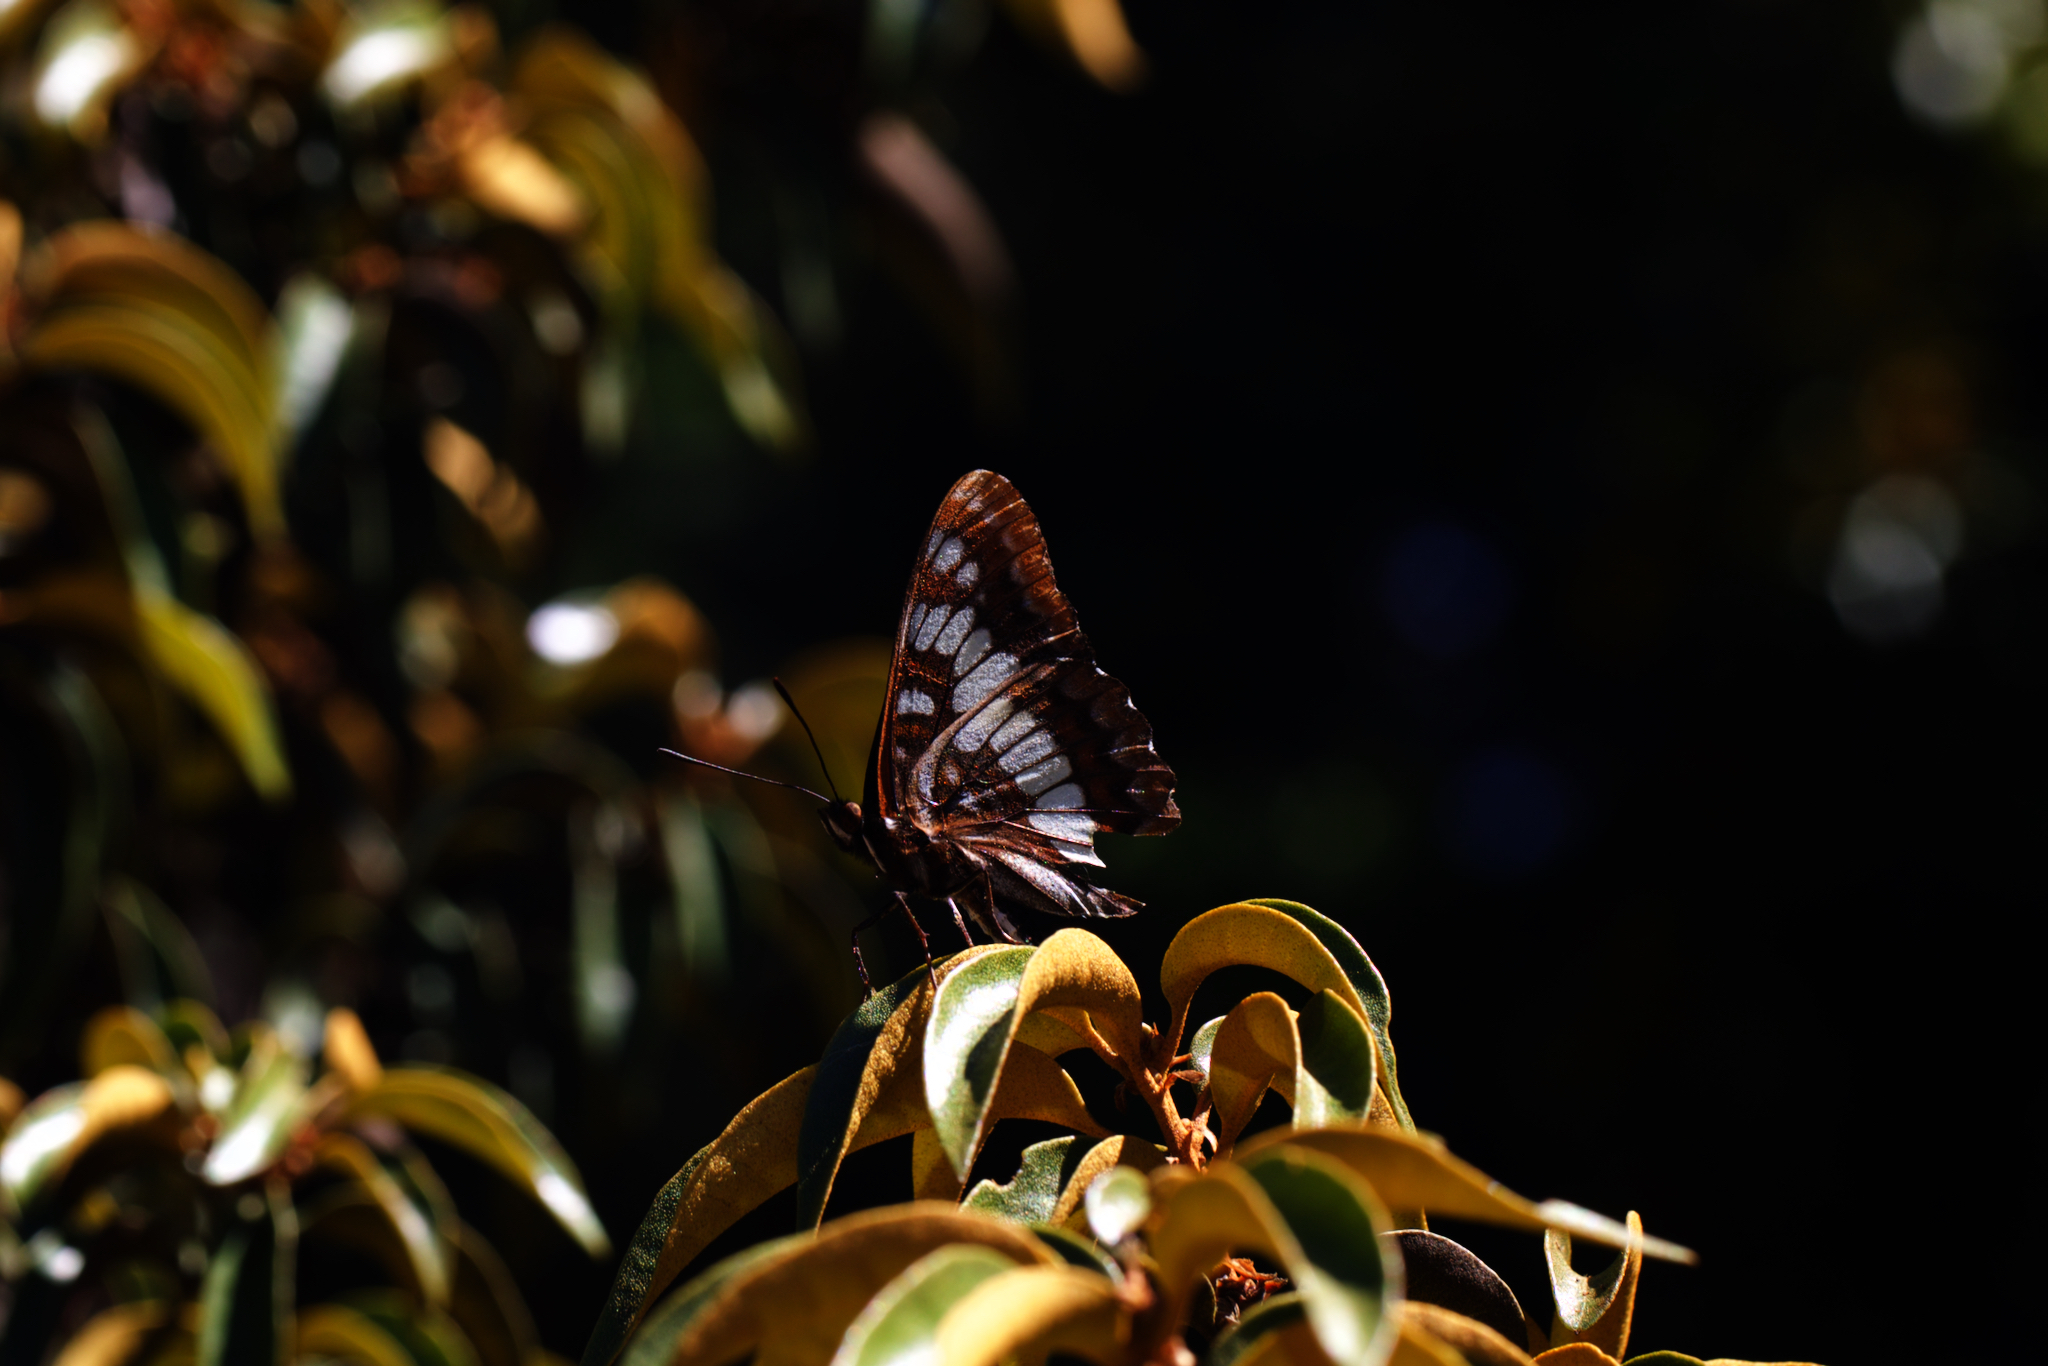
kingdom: Animalia
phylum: Arthropoda
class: Insecta
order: Lepidoptera
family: Nymphalidae
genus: Limenitis
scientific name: Limenitis lorquini
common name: Lorquin's admiral
